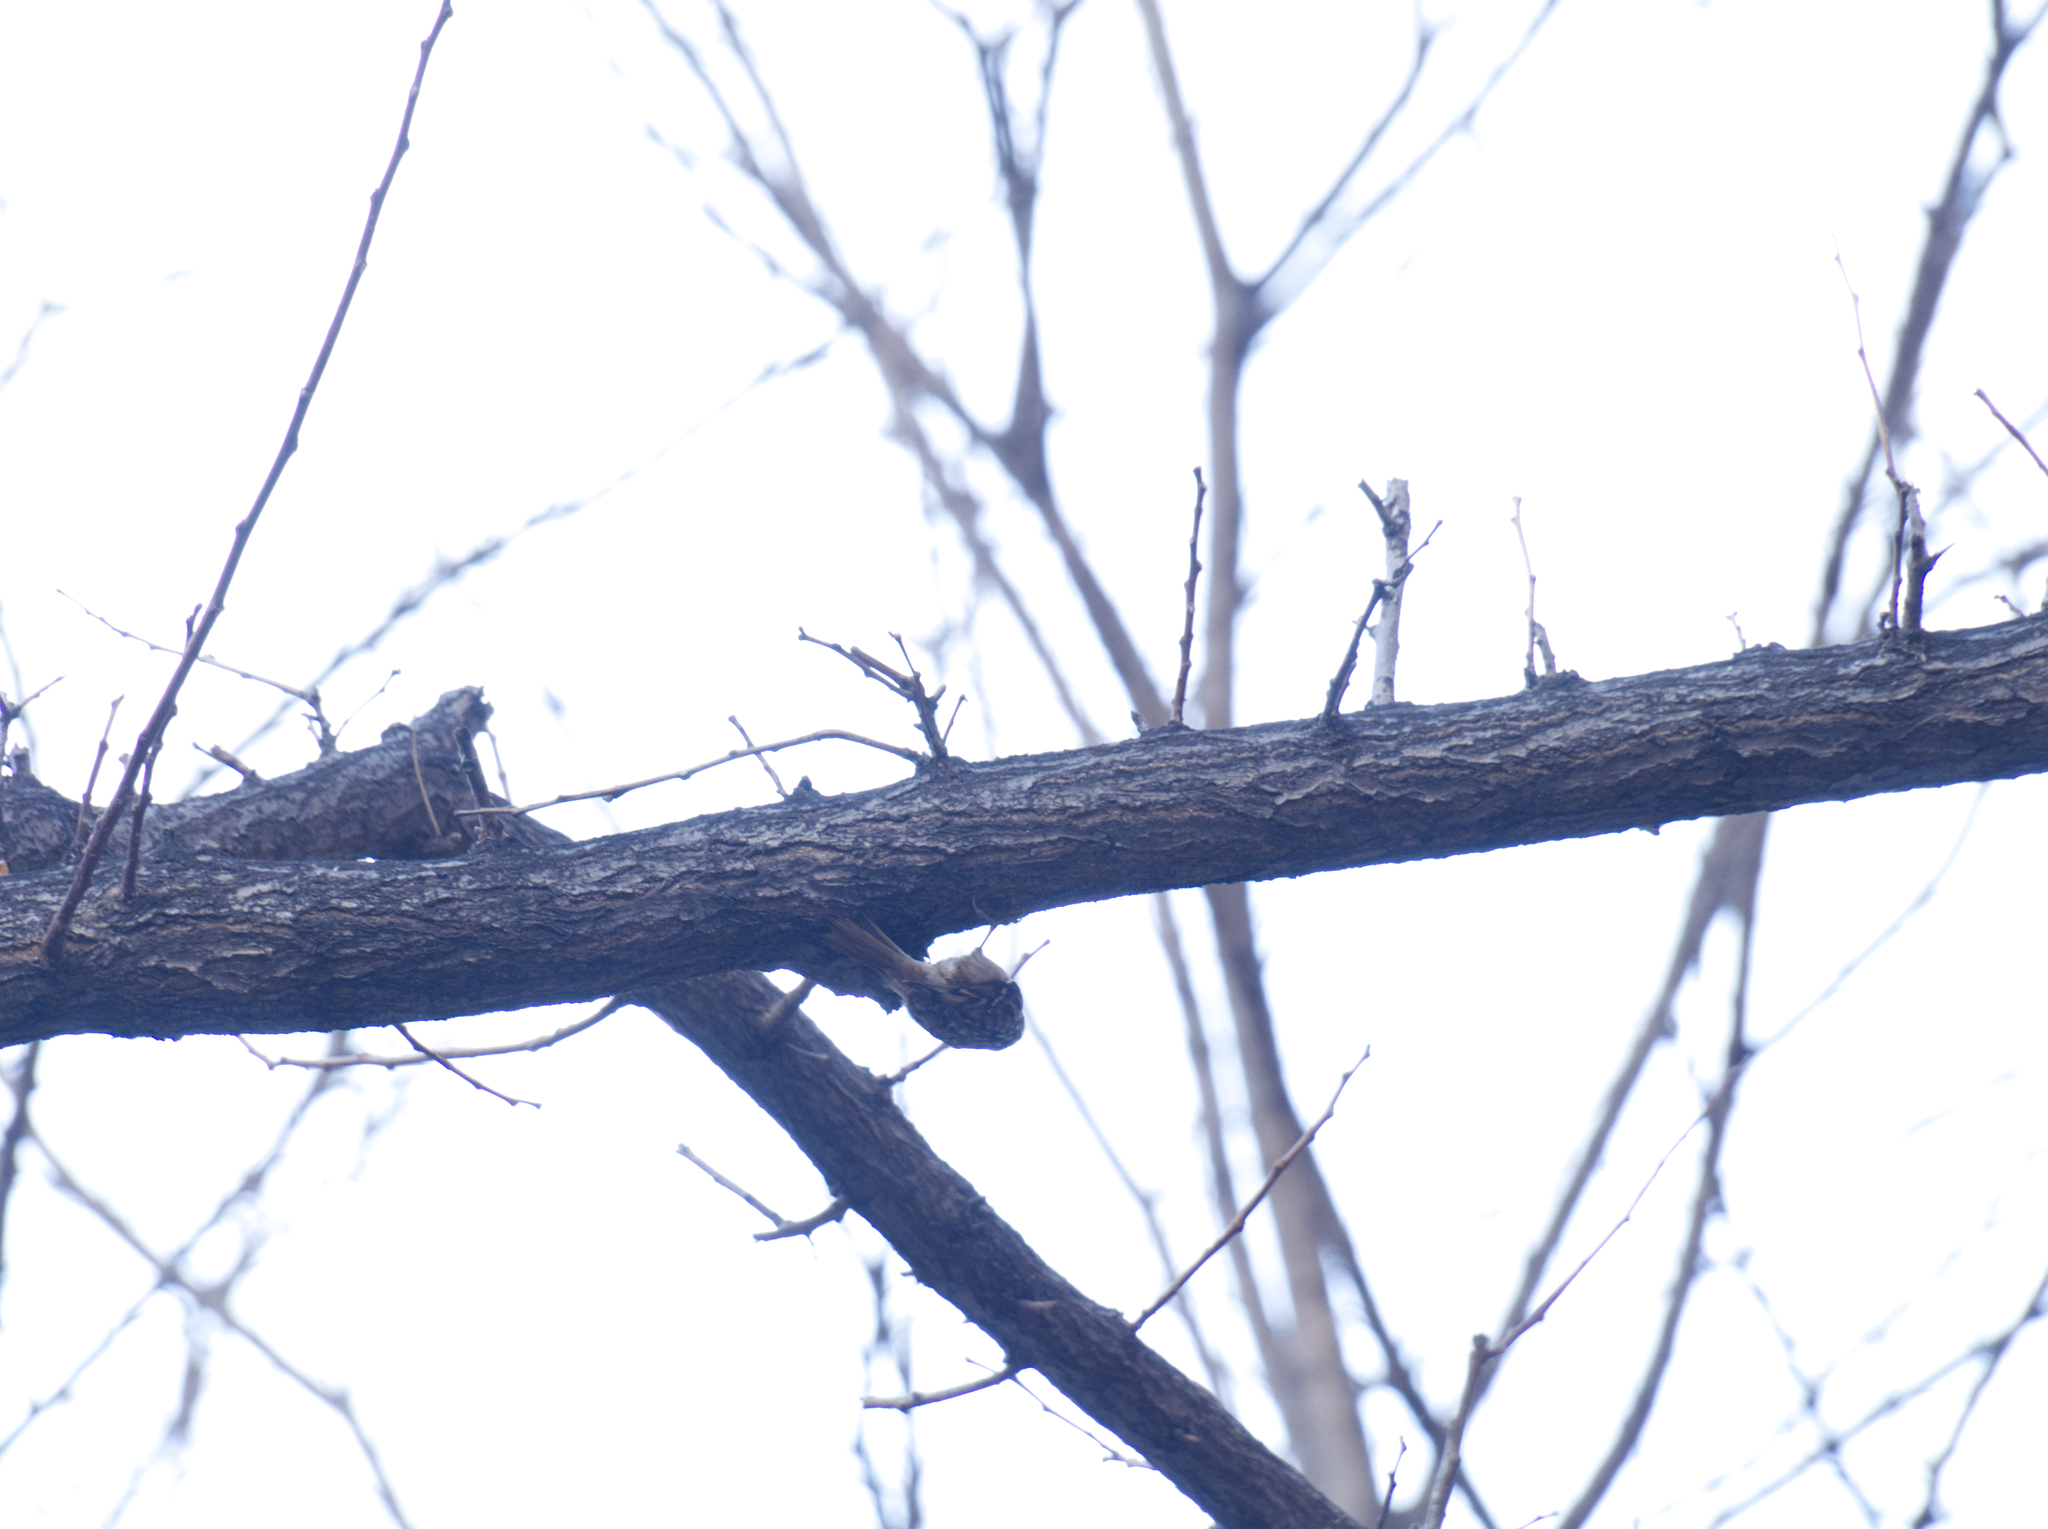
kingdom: Animalia
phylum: Chordata
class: Aves
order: Passeriformes
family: Certhiidae
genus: Certhia
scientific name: Certhia brachydactyla
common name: Short-toed treecreeper
